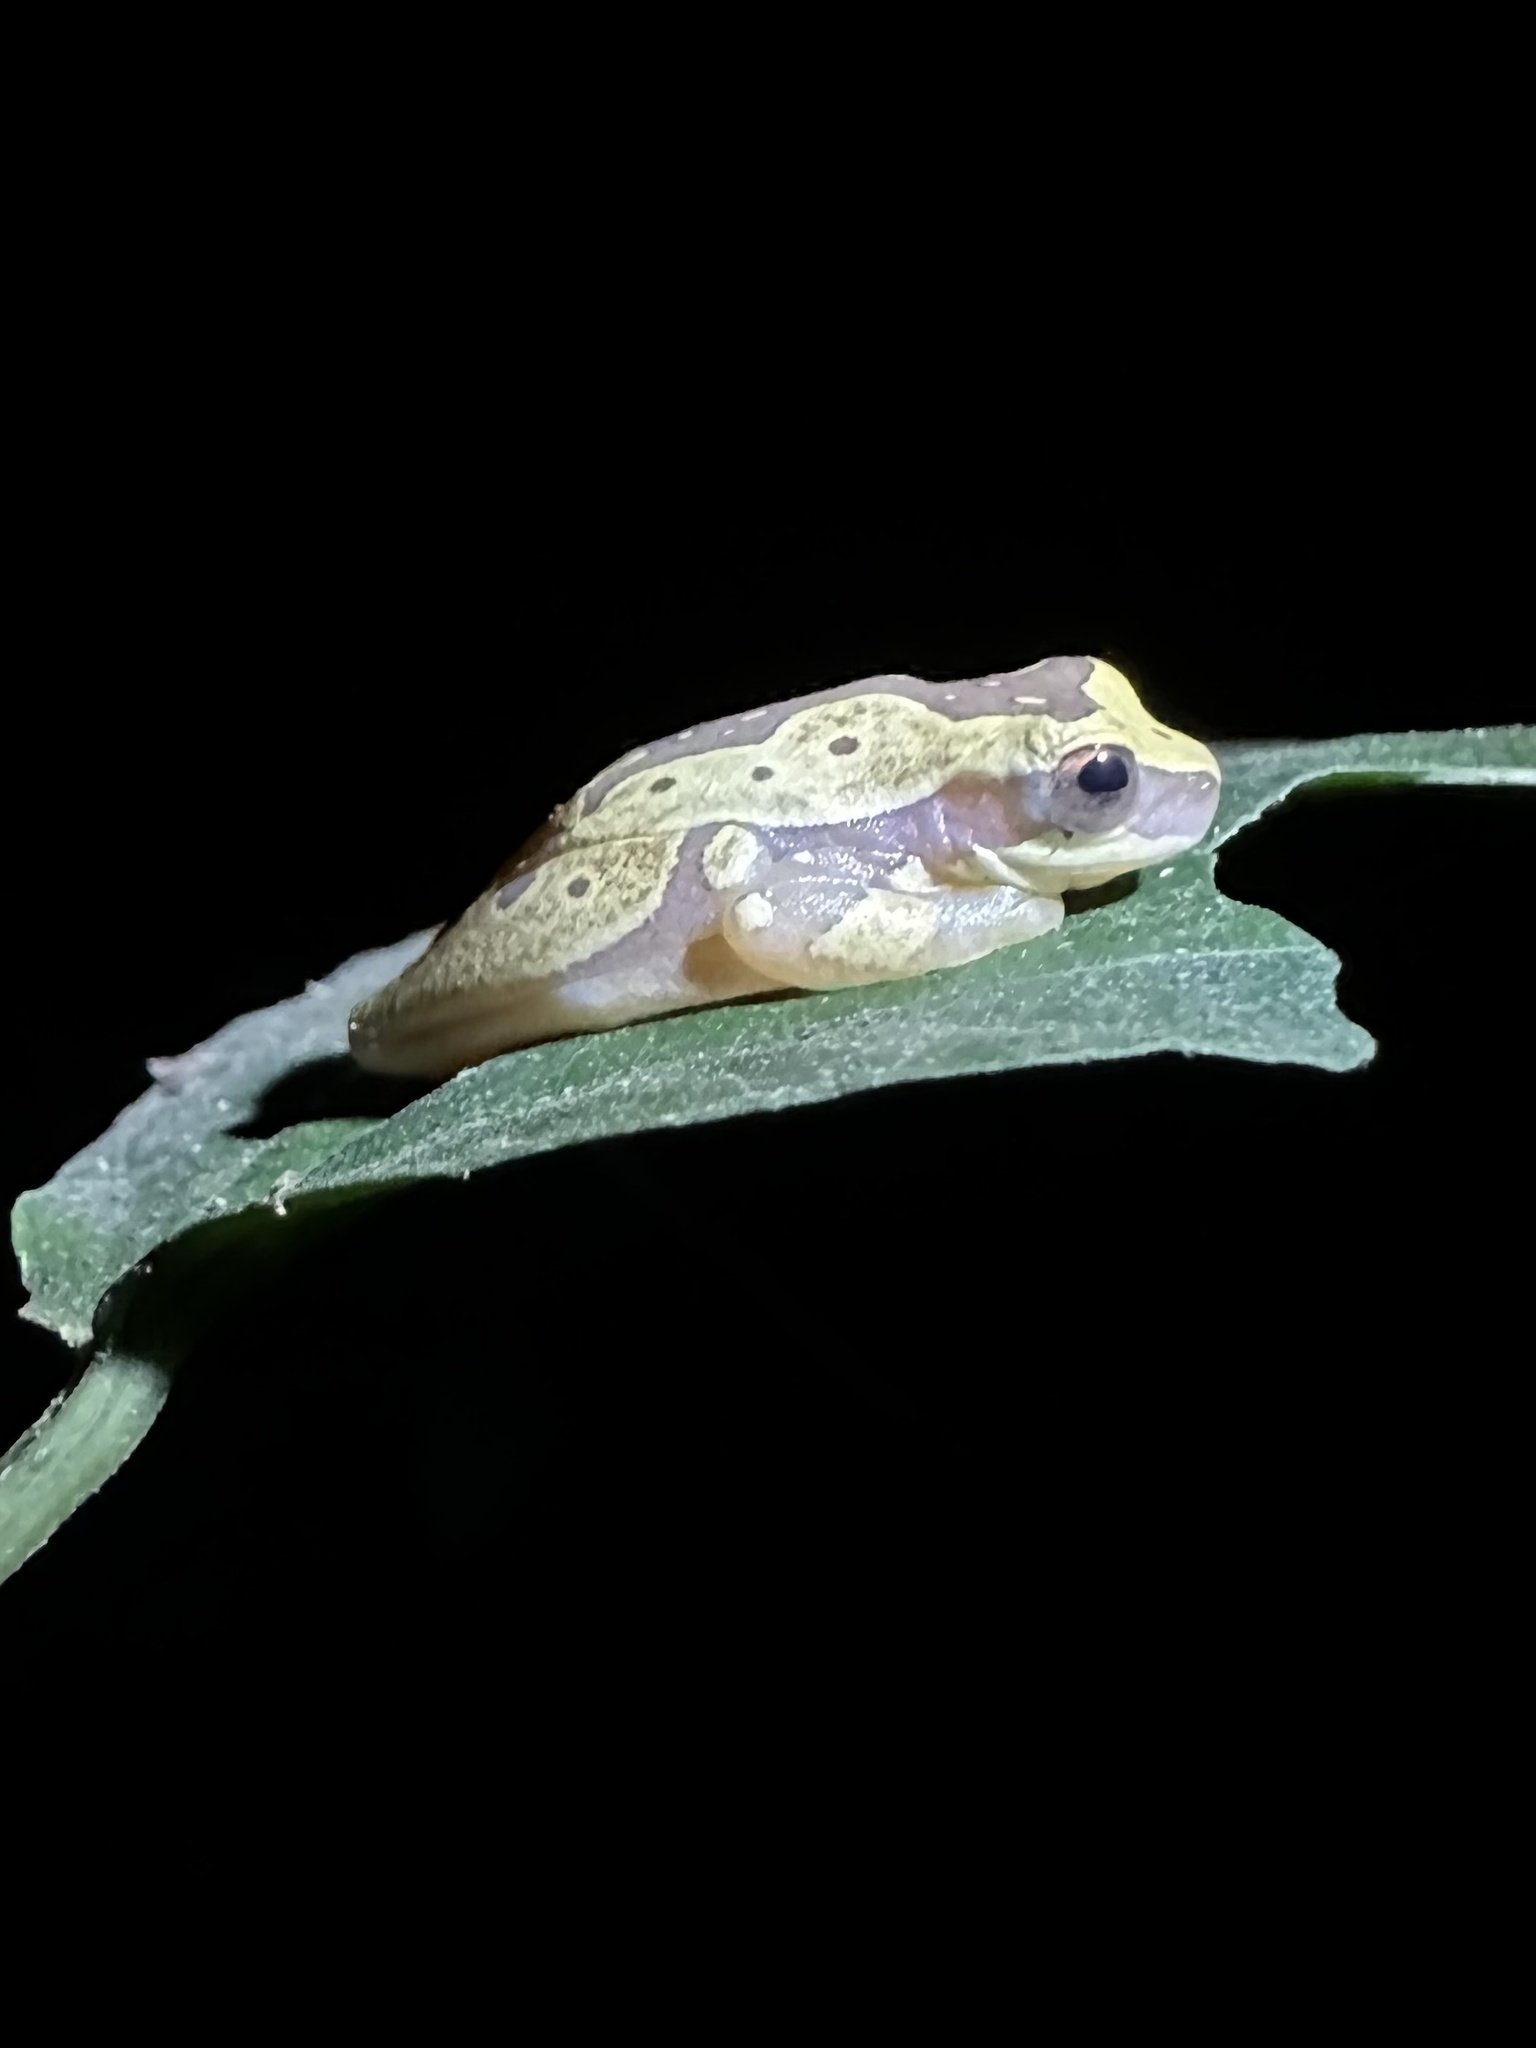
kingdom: Animalia
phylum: Chordata
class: Amphibia
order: Anura
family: Hylidae
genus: Dendropsophus
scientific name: Dendropsophus ebraccatus
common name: Hourglass treefrog
